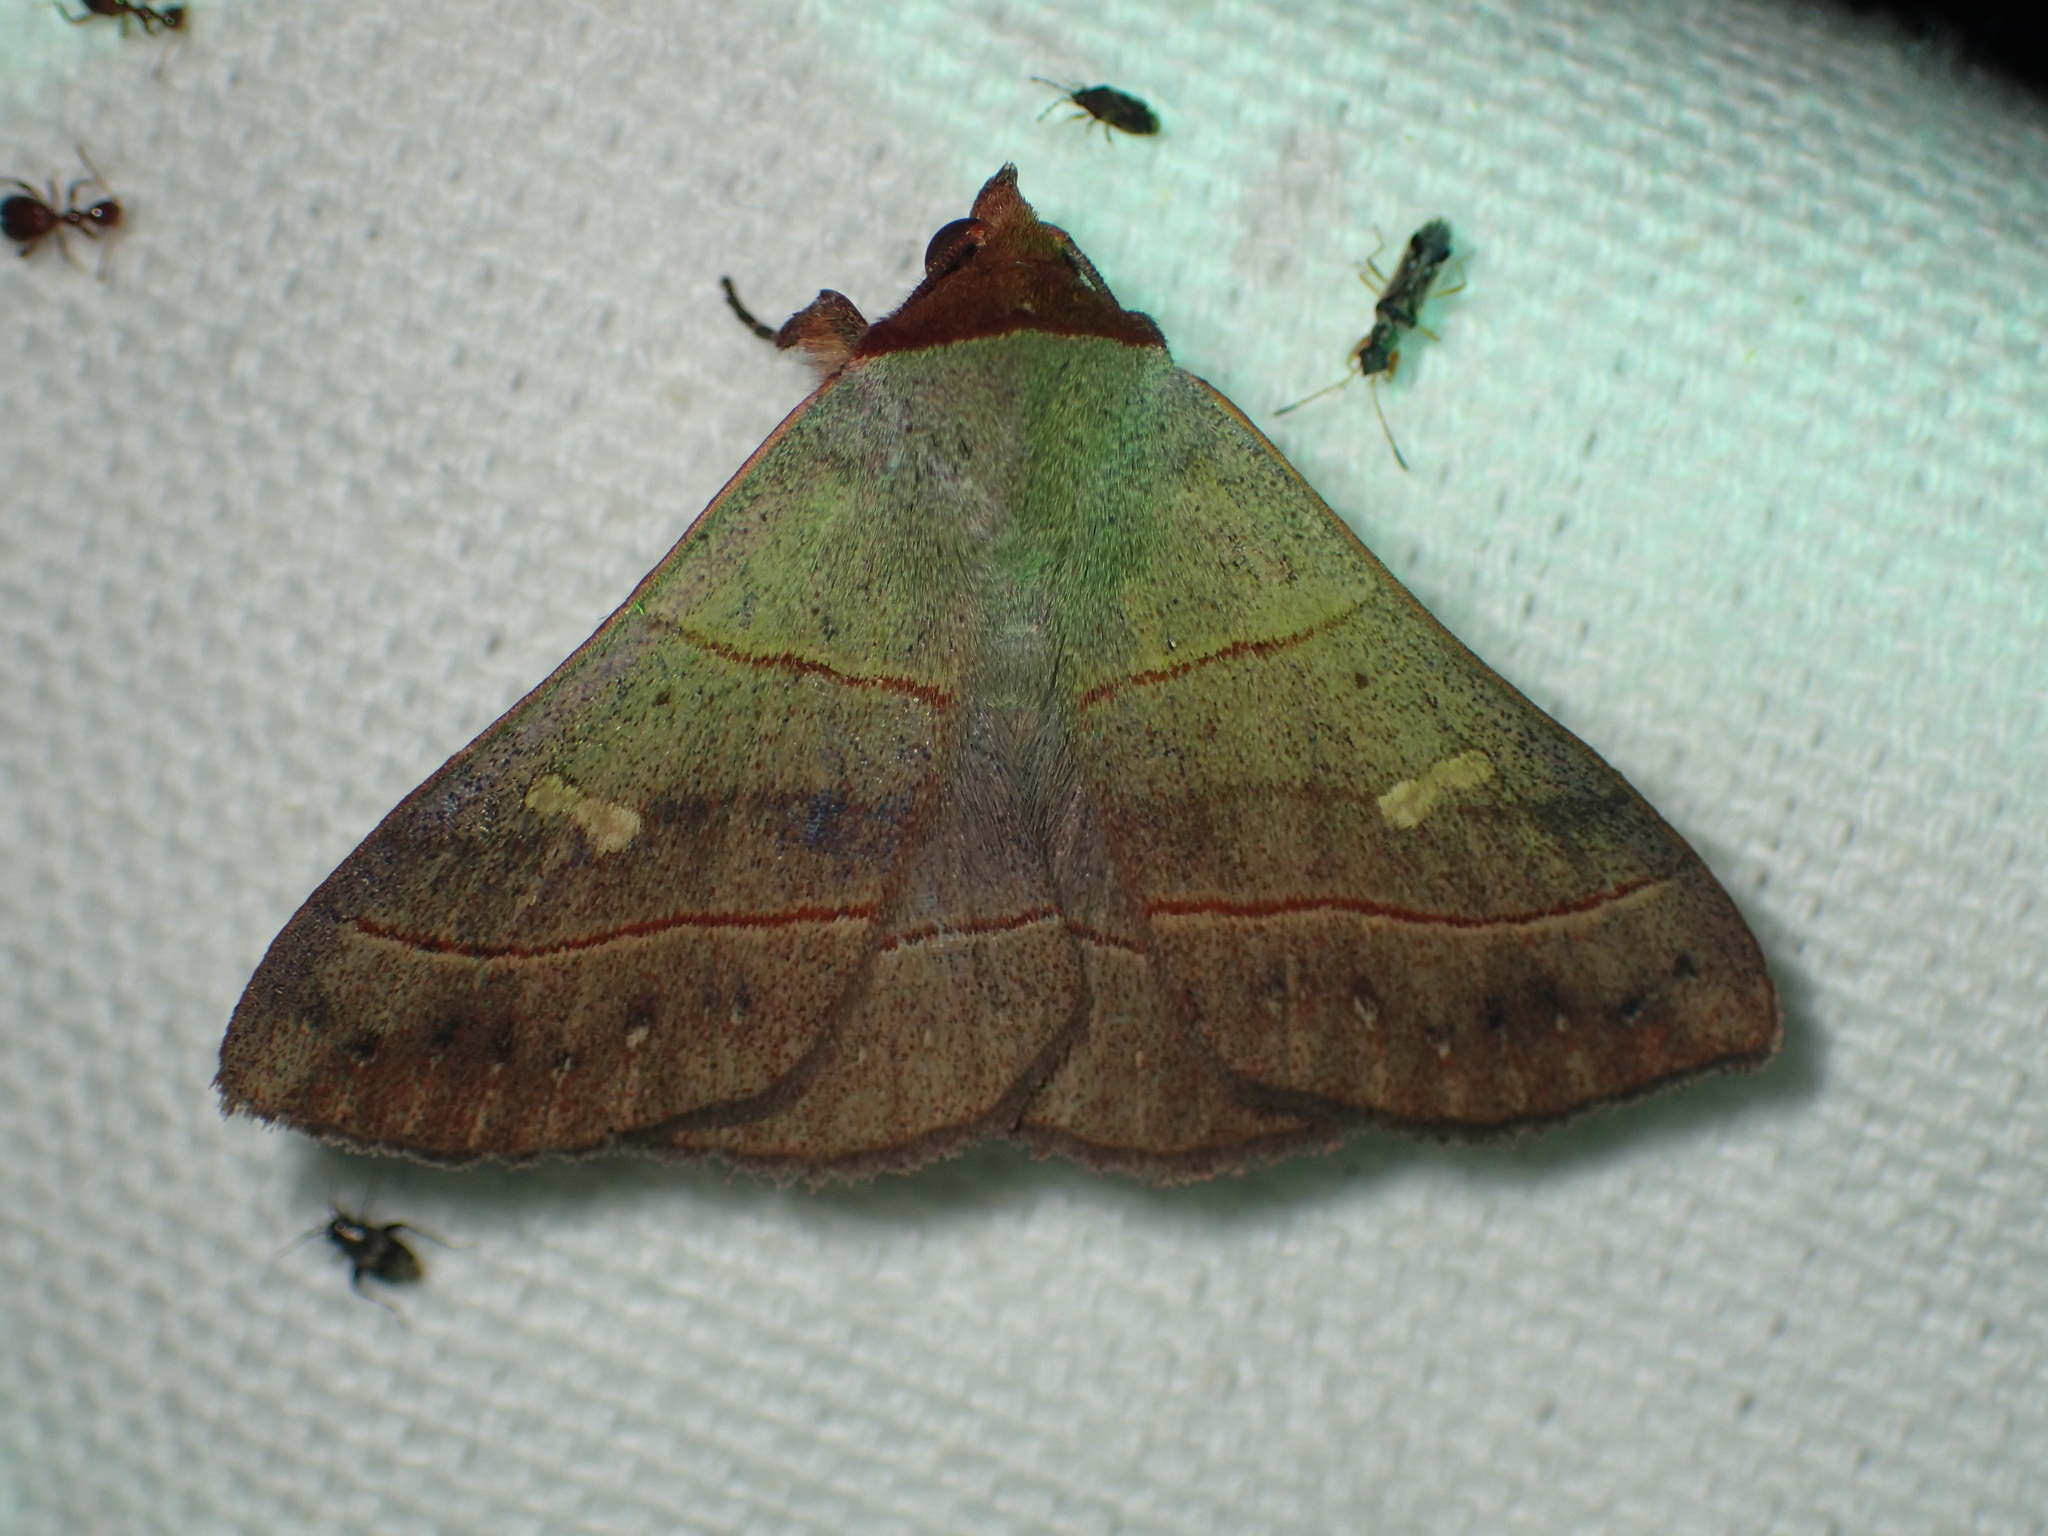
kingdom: Animalia
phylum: Arthropoda
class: Insecta
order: Lepidoptera
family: Erebidae
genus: Panopoda
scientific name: Panopoda rufimargo
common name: Red-lined panopoda moth
